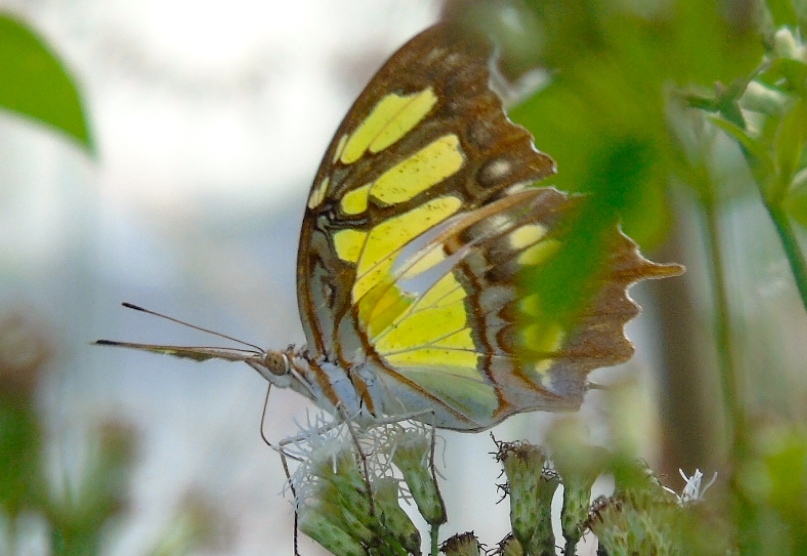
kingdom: Animalia
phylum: Arthropoda
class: Insecta
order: Lepidoptera
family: Nymphalidae
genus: Siproeta
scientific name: Siproeta stelenes
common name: Malachite
